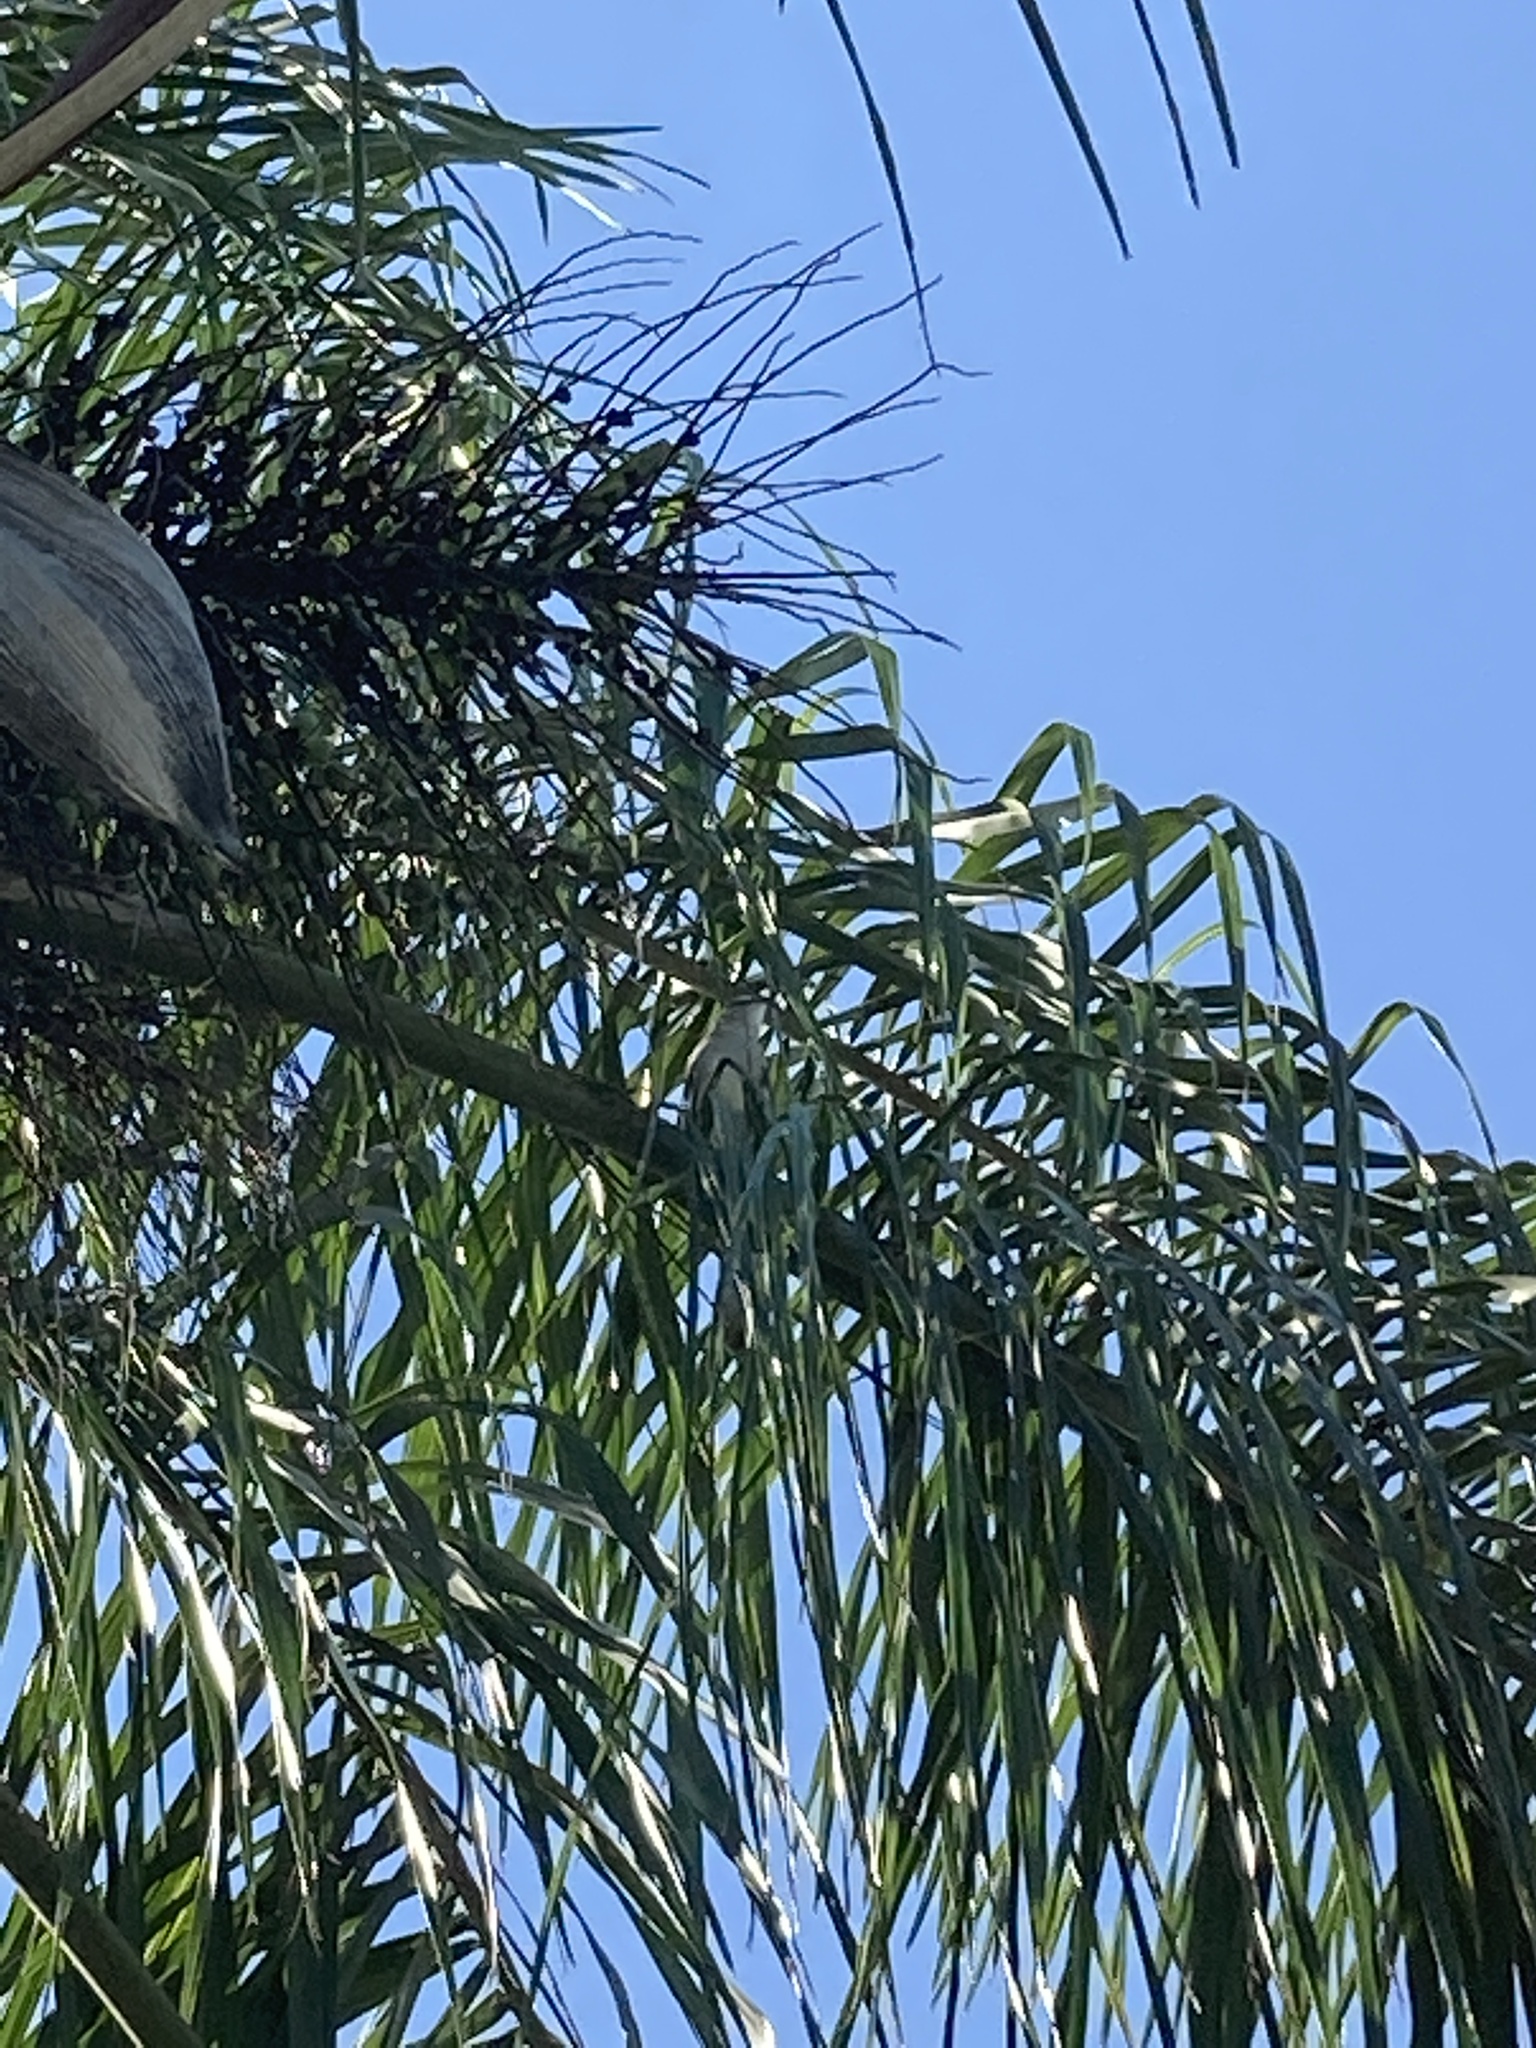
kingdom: Animalia
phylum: Chordata
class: Aves
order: Passeriformes
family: Mimidae
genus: Mimus
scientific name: Mimus polyglottos
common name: Northern mockingbird
